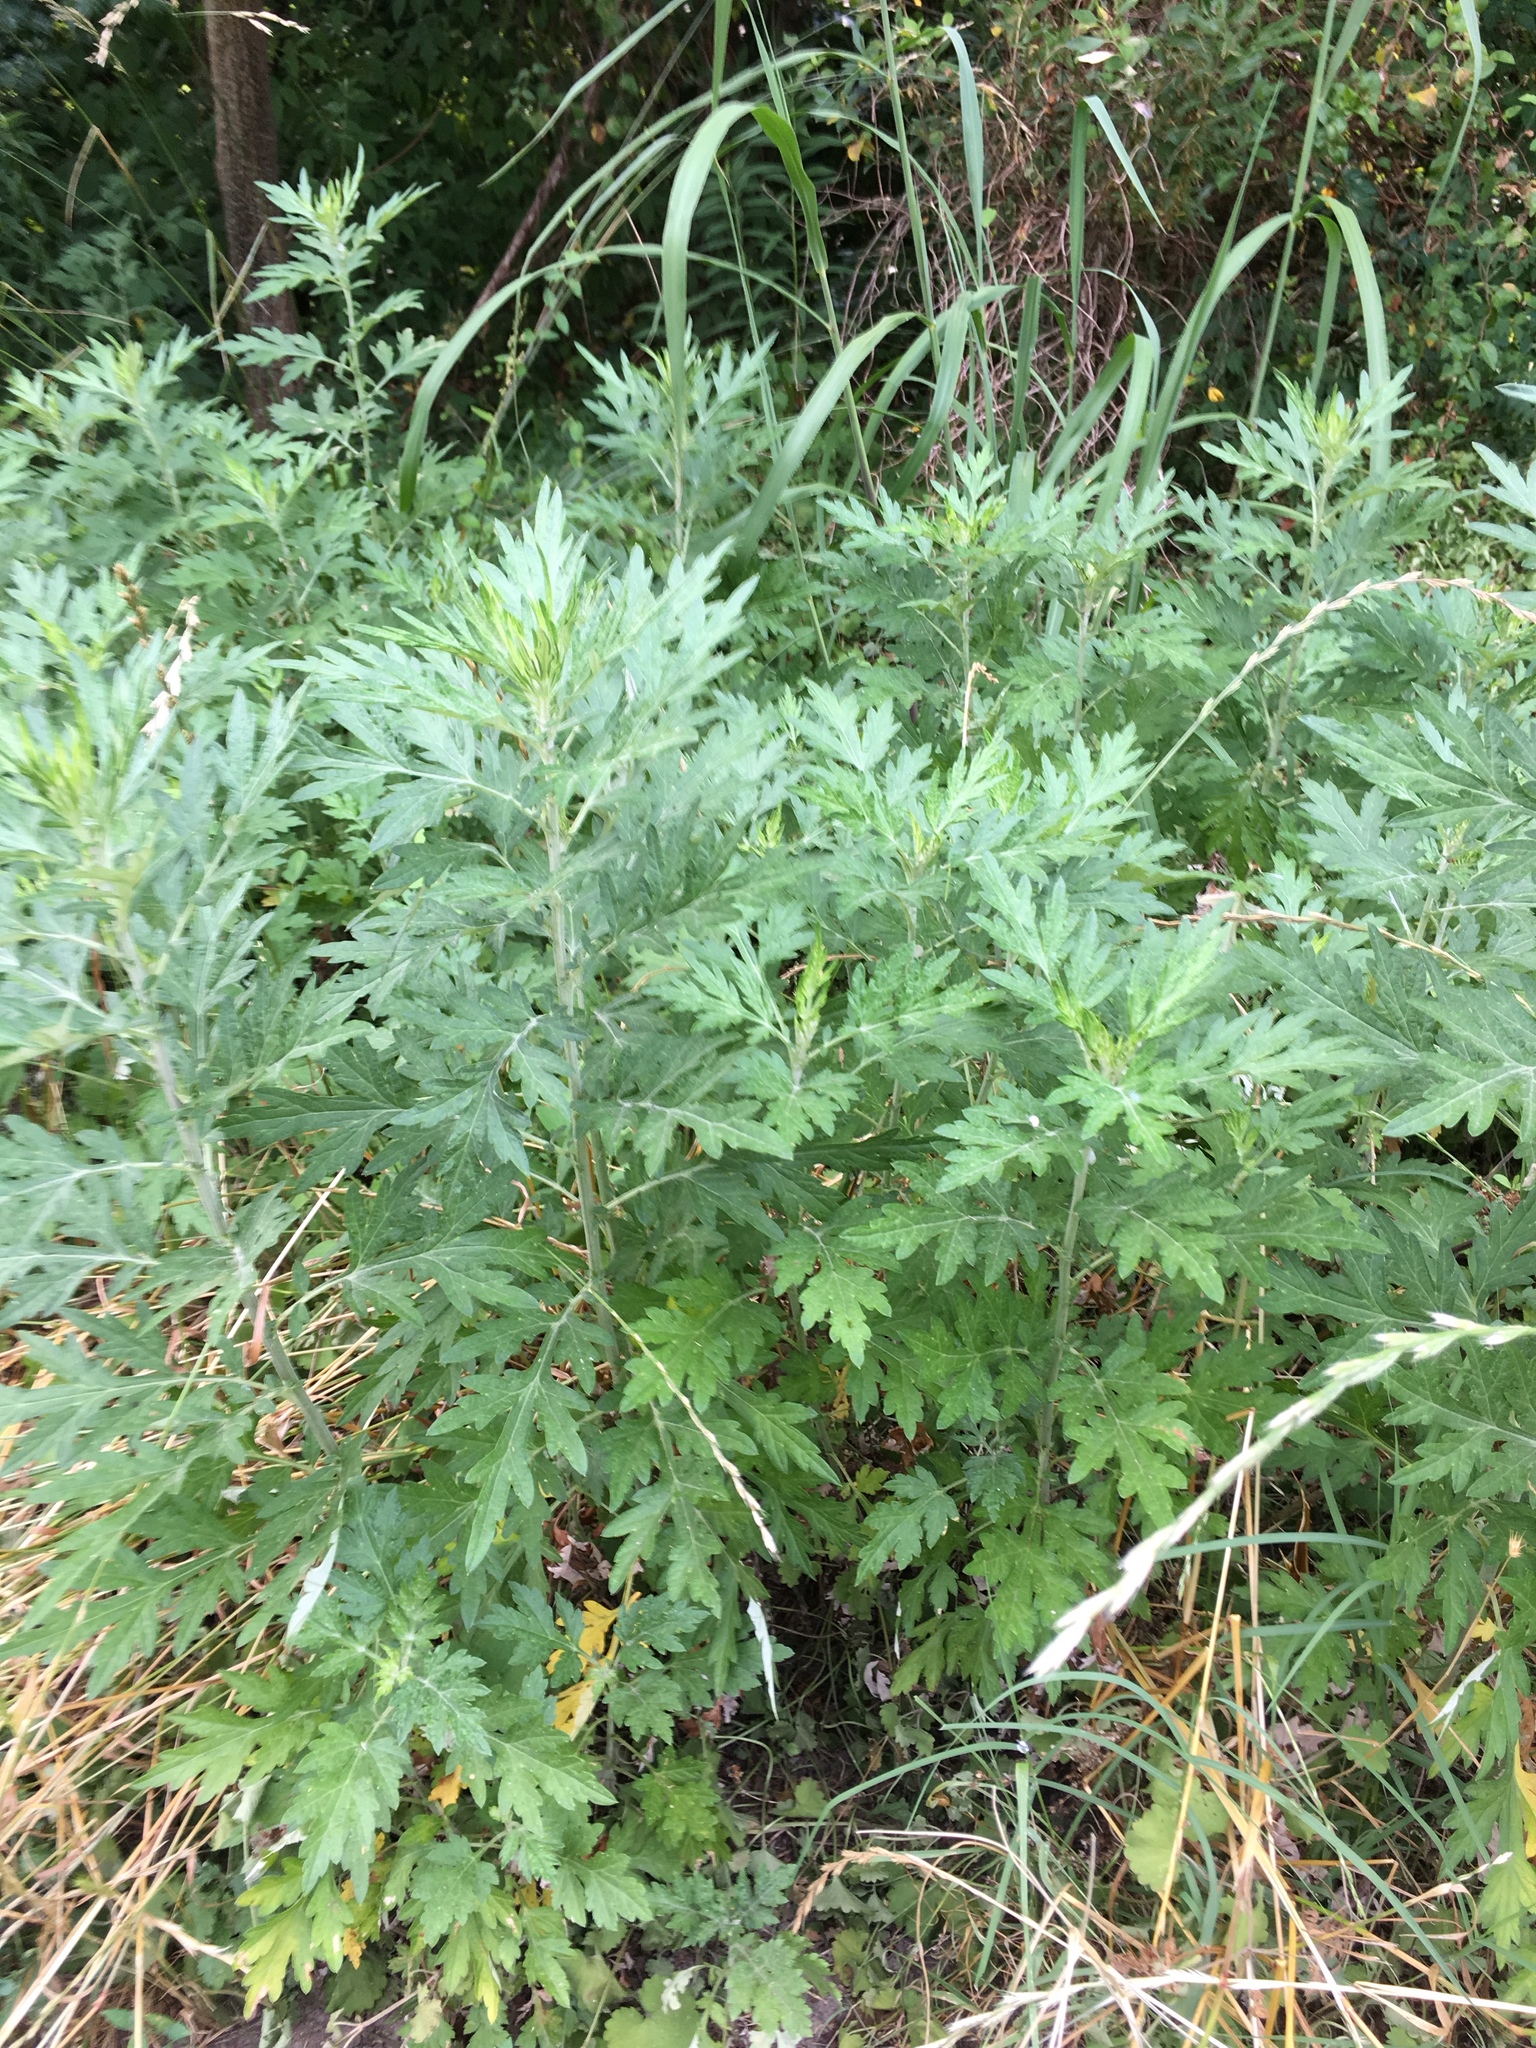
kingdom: Plantae
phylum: Tracheophyta
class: Magnoliopsida
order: Asterales
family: Asteraceae
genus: Artemisia
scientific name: Artemisia vulgaris
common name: Mugwort
